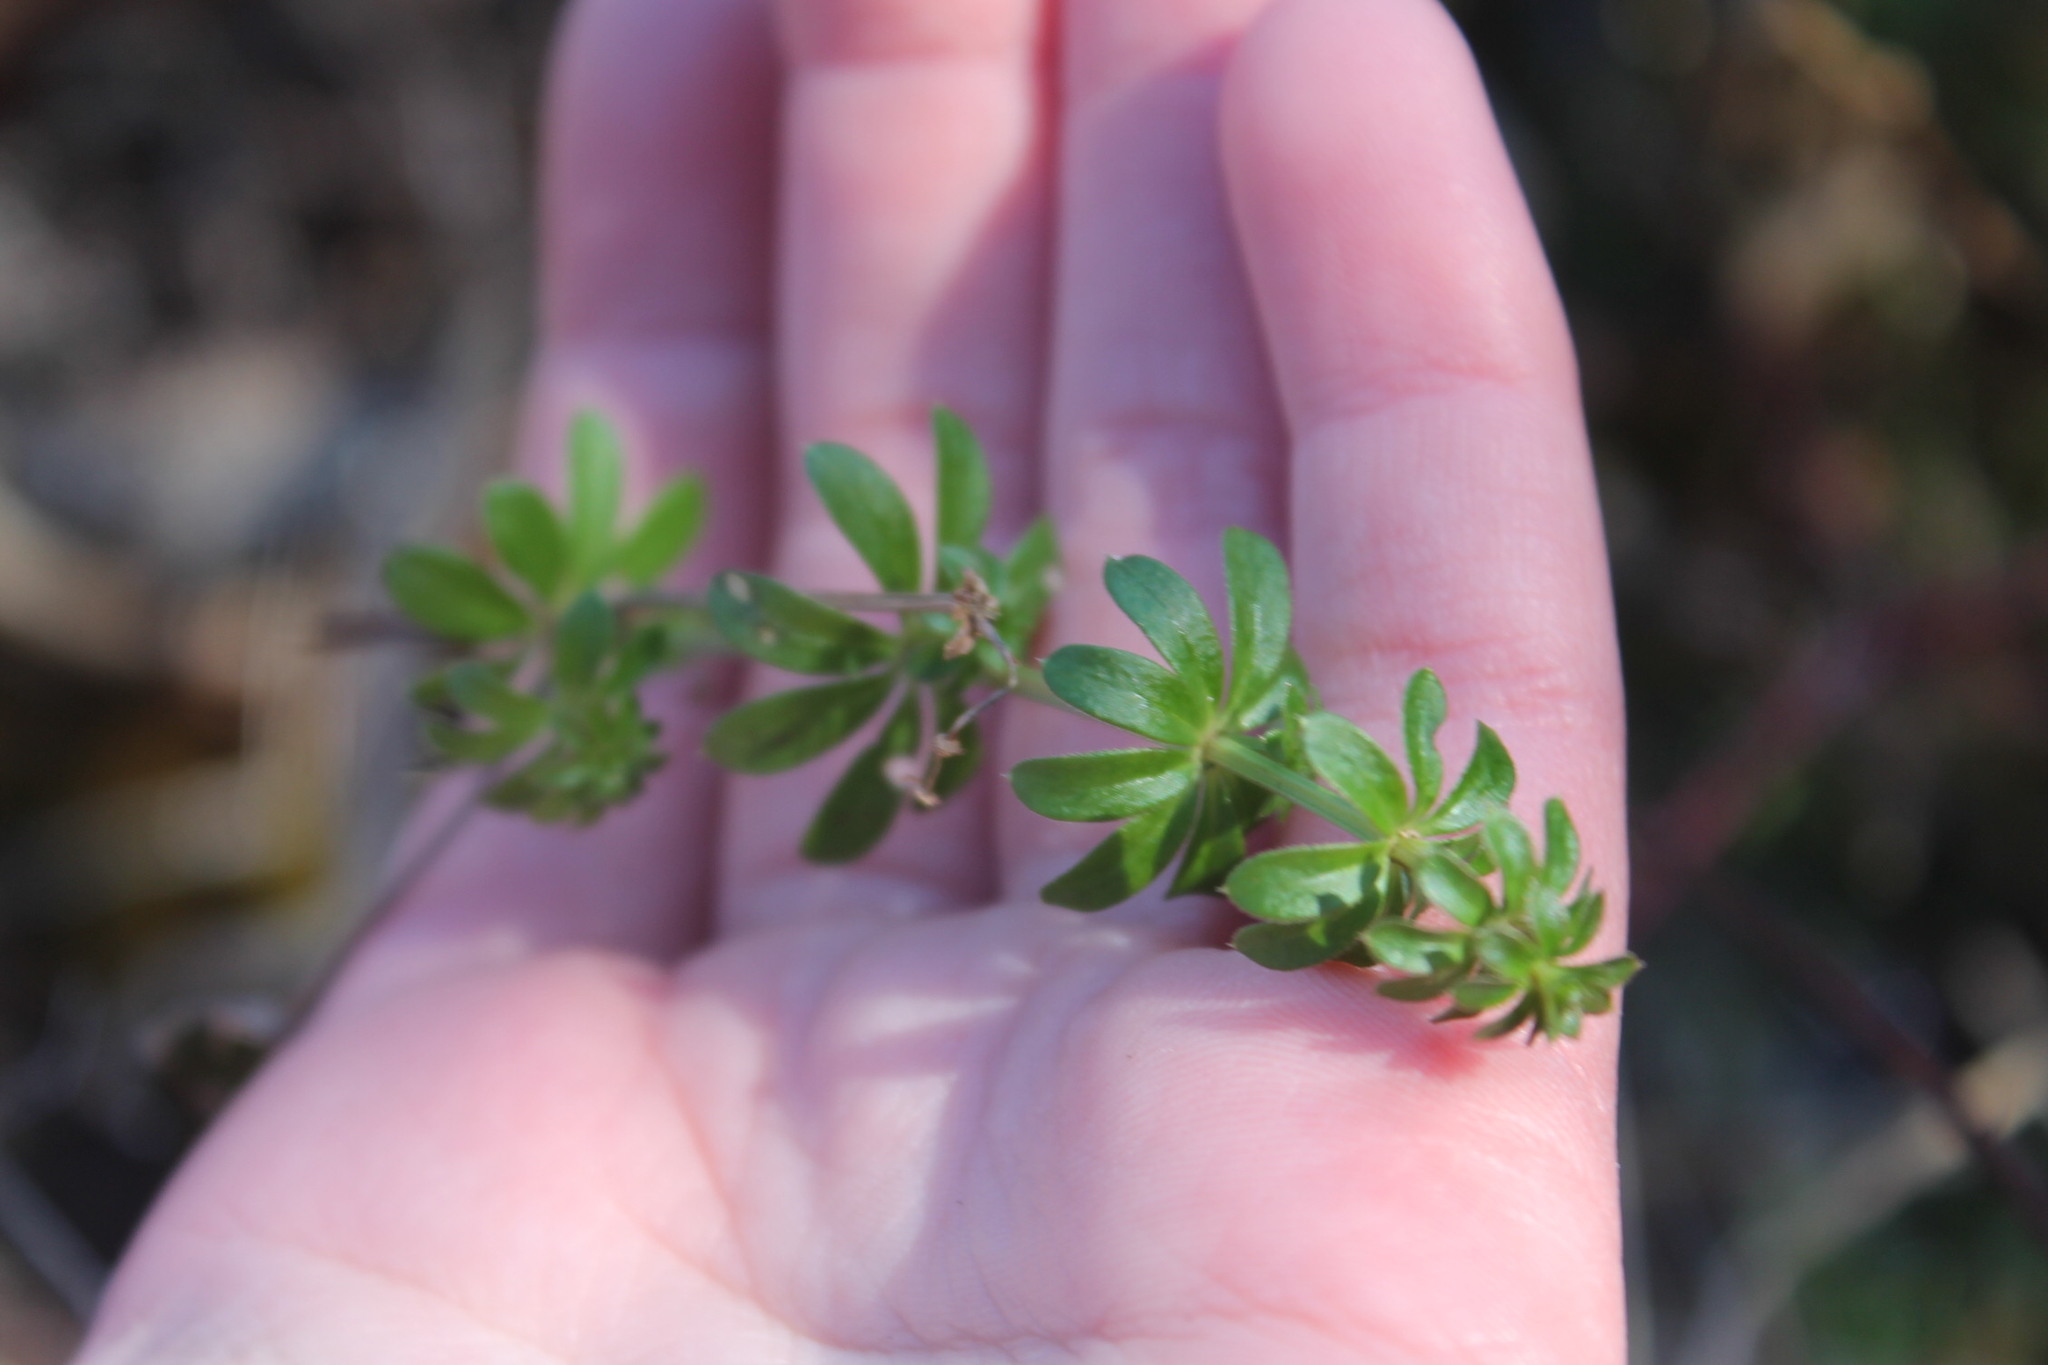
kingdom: Plantae
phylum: Tracheophyta
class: Magnoliopsida
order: Gentianales
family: Rubiaceae
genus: Galium
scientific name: Galium mollugo
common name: Hedge bedstraw
